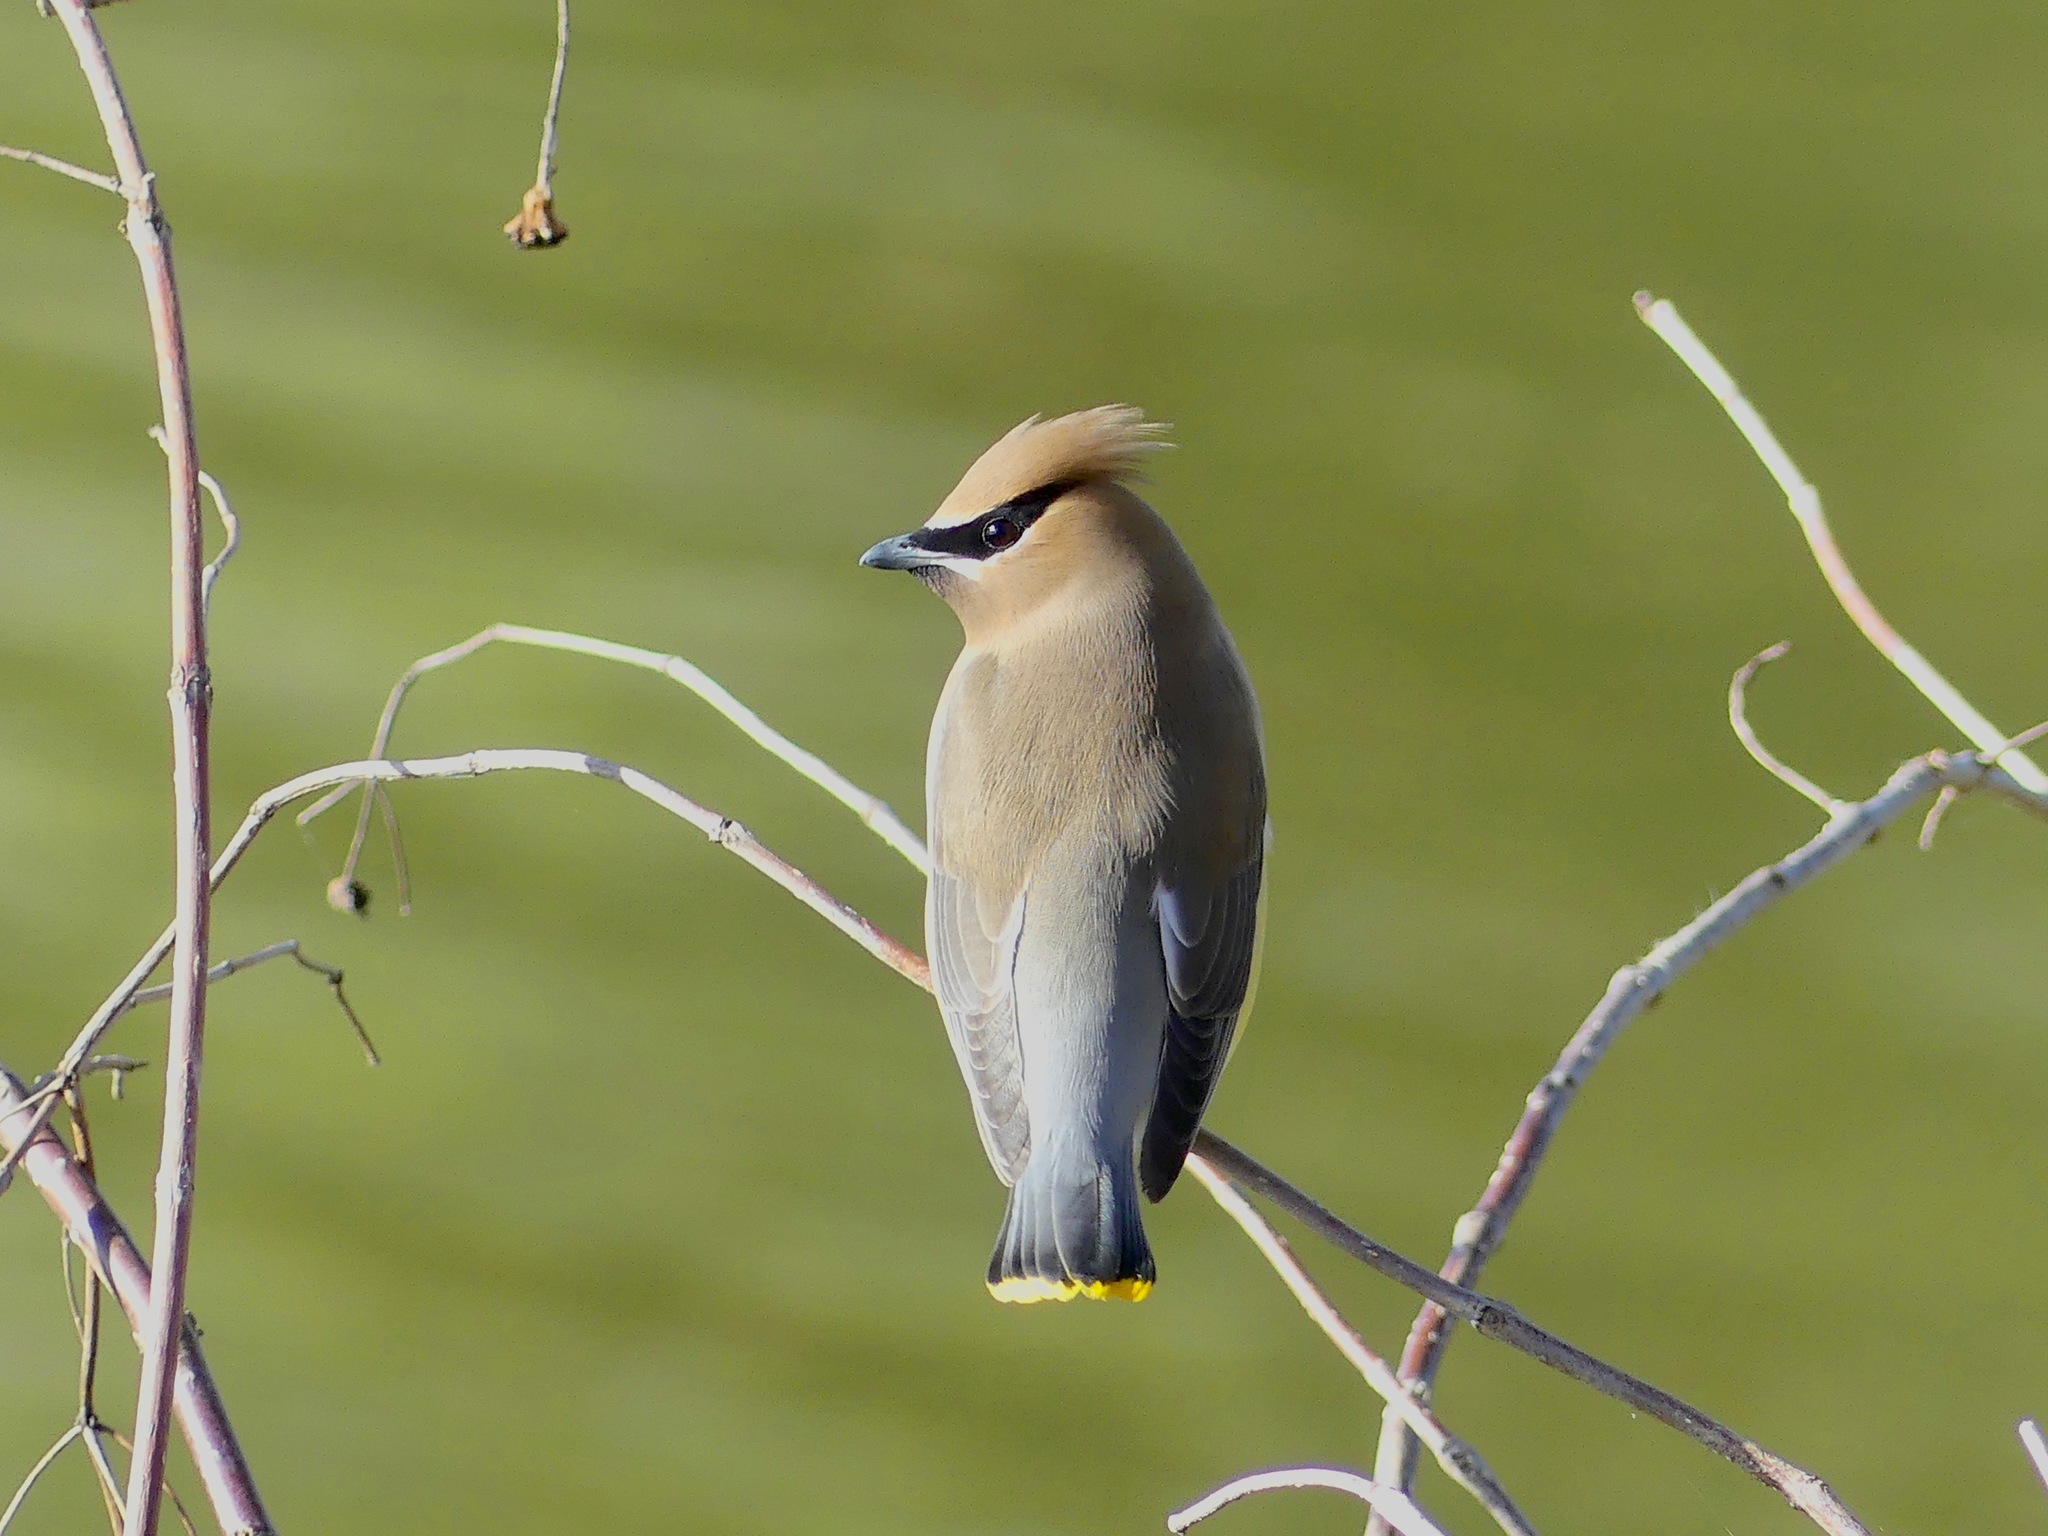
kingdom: Animalia
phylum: Chordata
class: Aves
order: Passeriformes
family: Bombycillidae
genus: Bombycilla
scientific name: Bombycilla cedrorum
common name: Cedar waxwing
